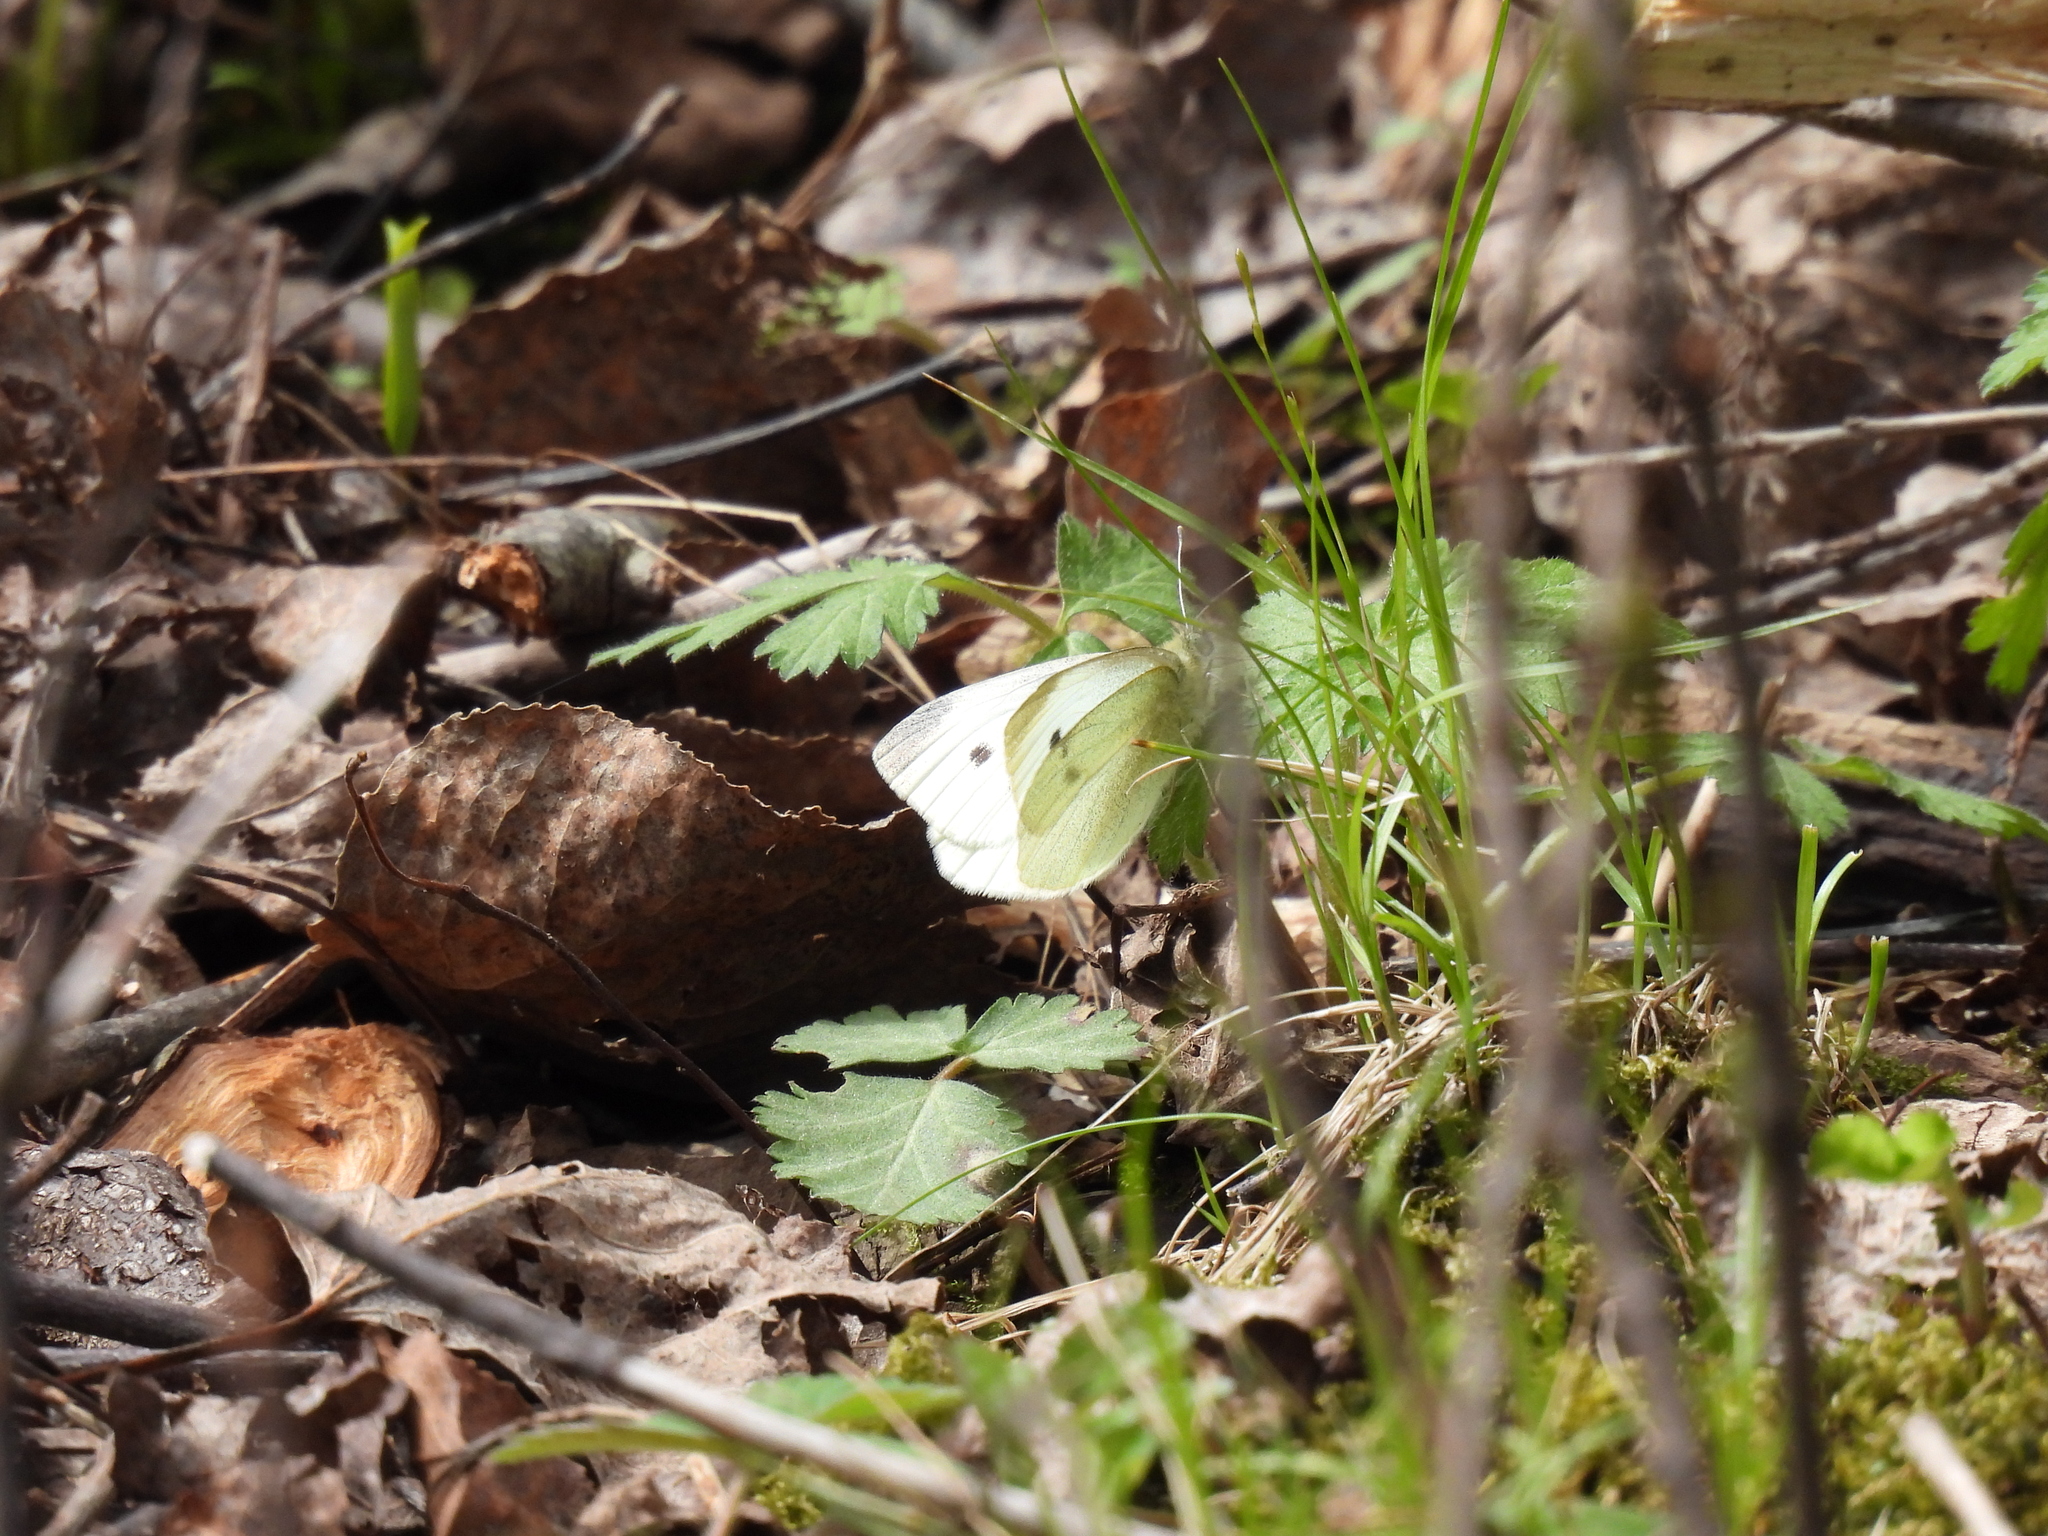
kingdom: Animalia
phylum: Arthropoda
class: Insecta
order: Lepidoptera
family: Pieridae
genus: Pieris
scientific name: Pieris rapae
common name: Small white
